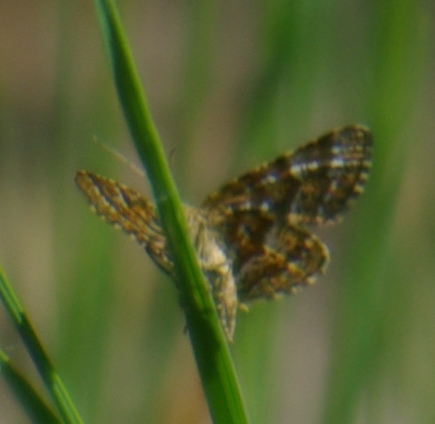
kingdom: Animalia
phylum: Arthropoda
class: Insecta
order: Lepidoptera
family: Geometridae
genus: Macaria
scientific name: Macaria truncataria
